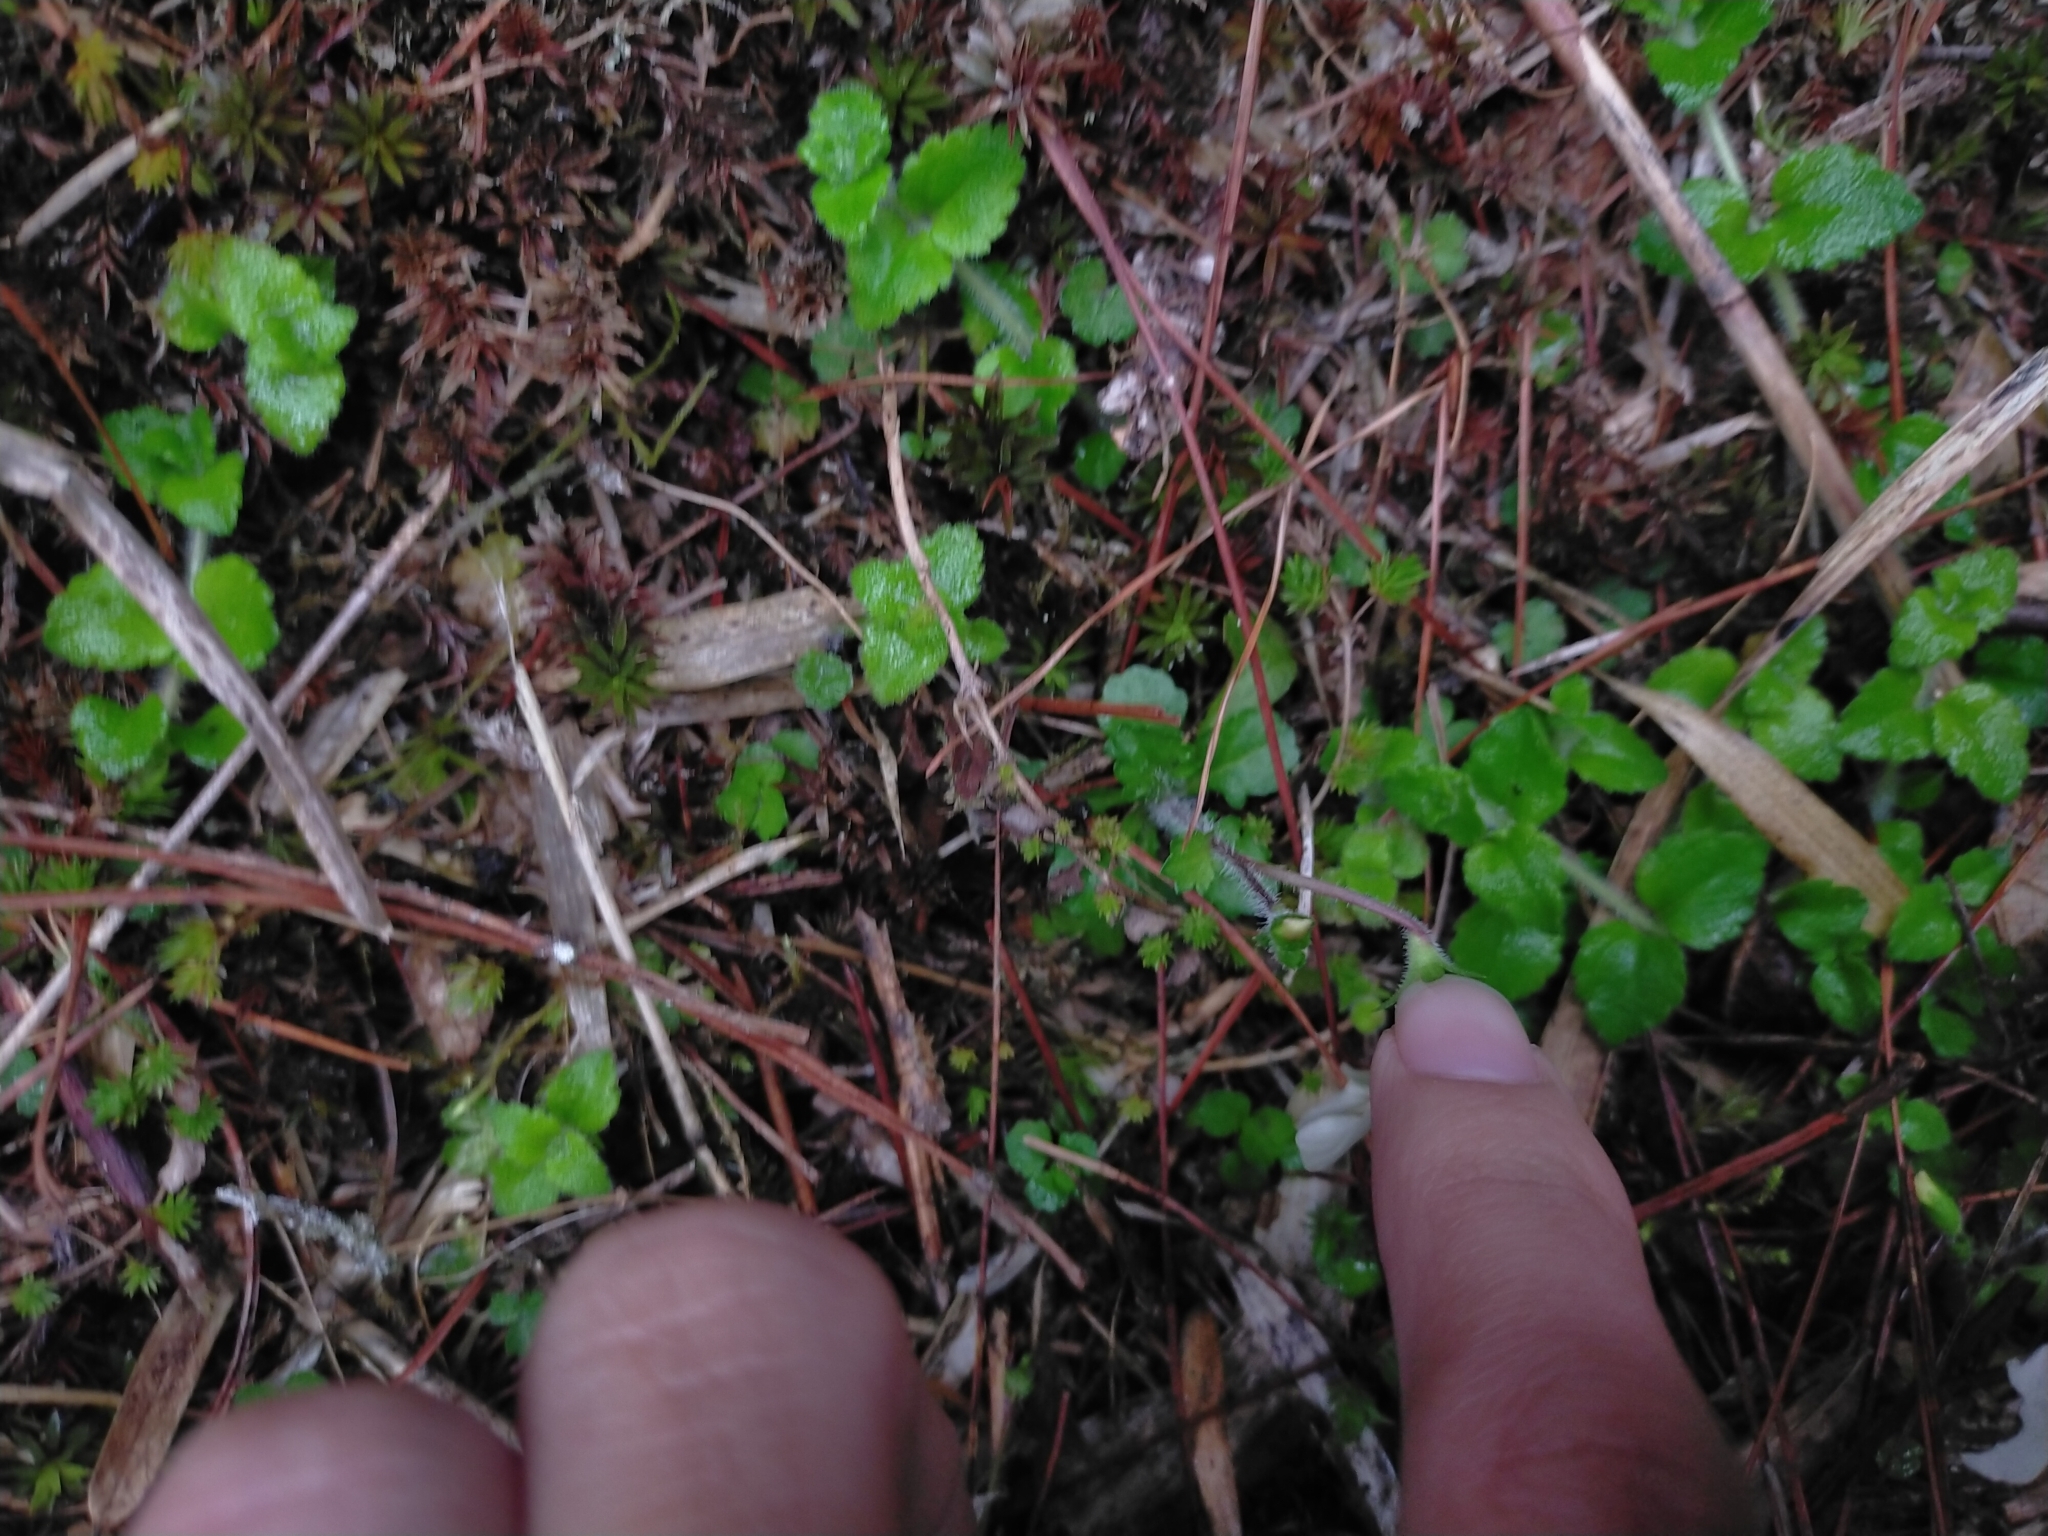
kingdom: Plantae
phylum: Tracheophyta
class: Magnoliopsida
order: Lamiales
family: Mazaceae
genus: Mazus
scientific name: Mazus alpinus
